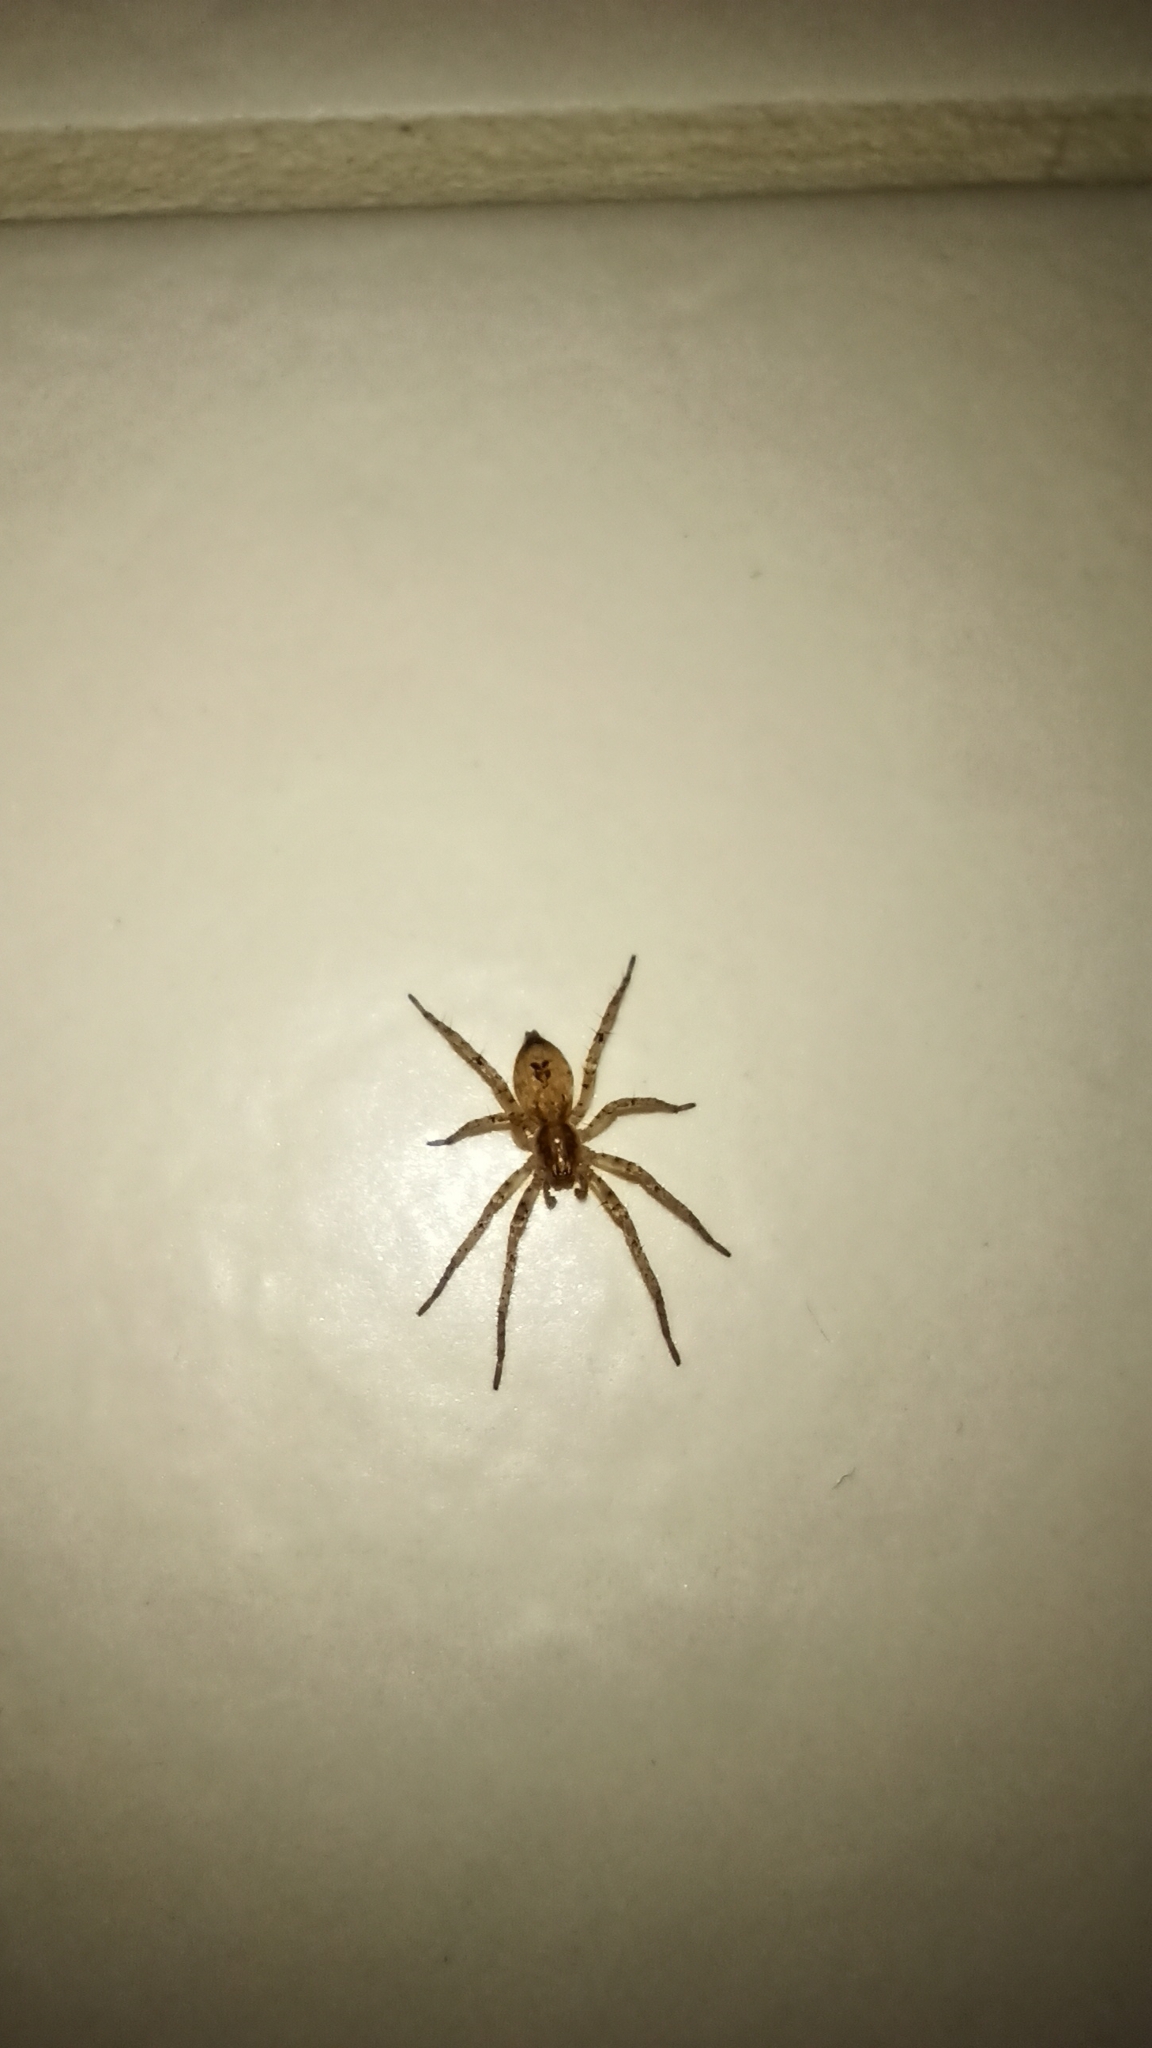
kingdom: Animalia
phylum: Arthropoda
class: Arachnida
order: Araneae
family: Anyphaenidae
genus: Anyphaena
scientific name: Anyphaena accentuata
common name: Buzzing spider
